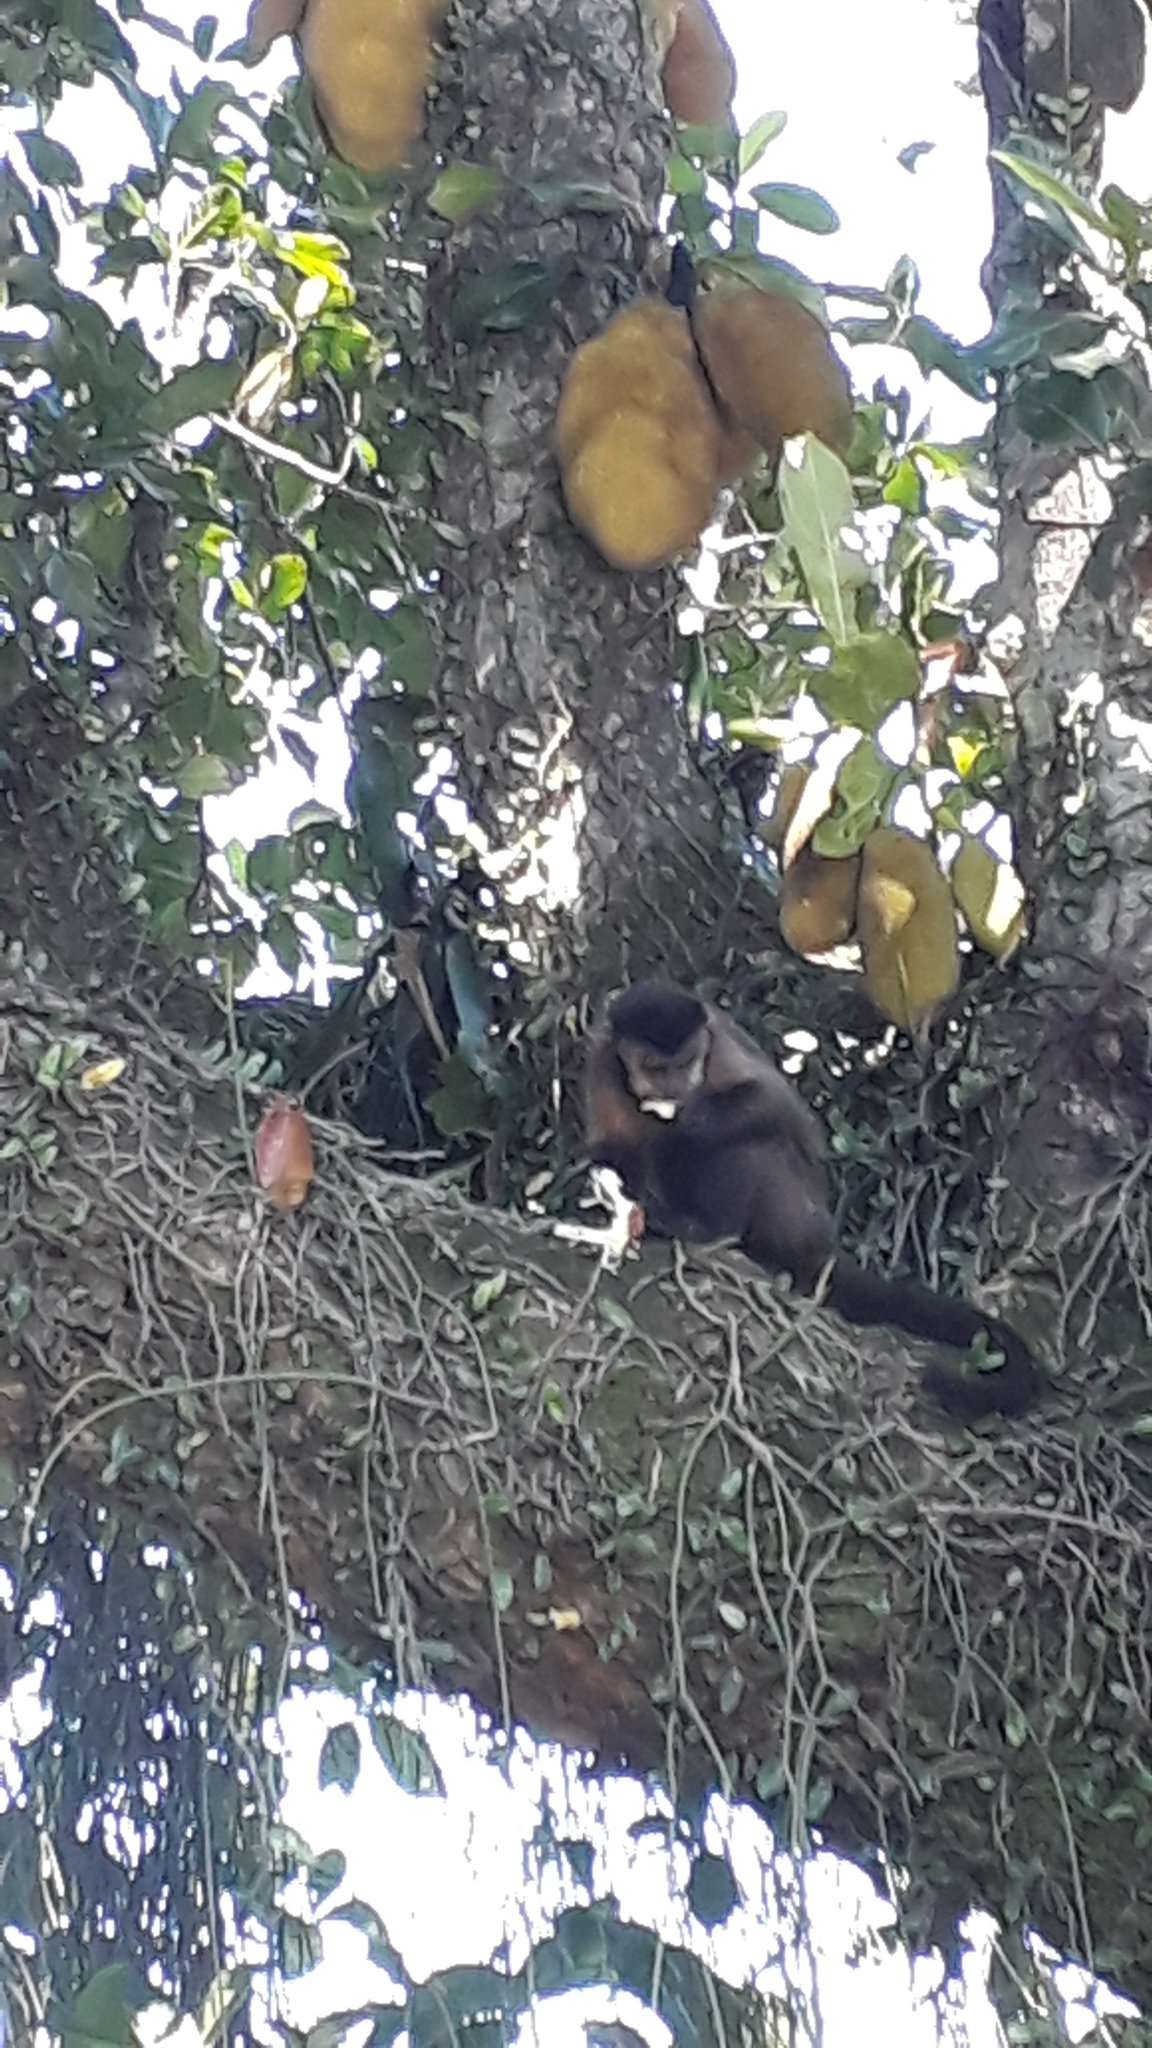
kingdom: Animalia
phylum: Chordata
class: Mammalia
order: Primates
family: Cebidae
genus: Sapajus
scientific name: Sapajus nigritus
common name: Black capuchin
